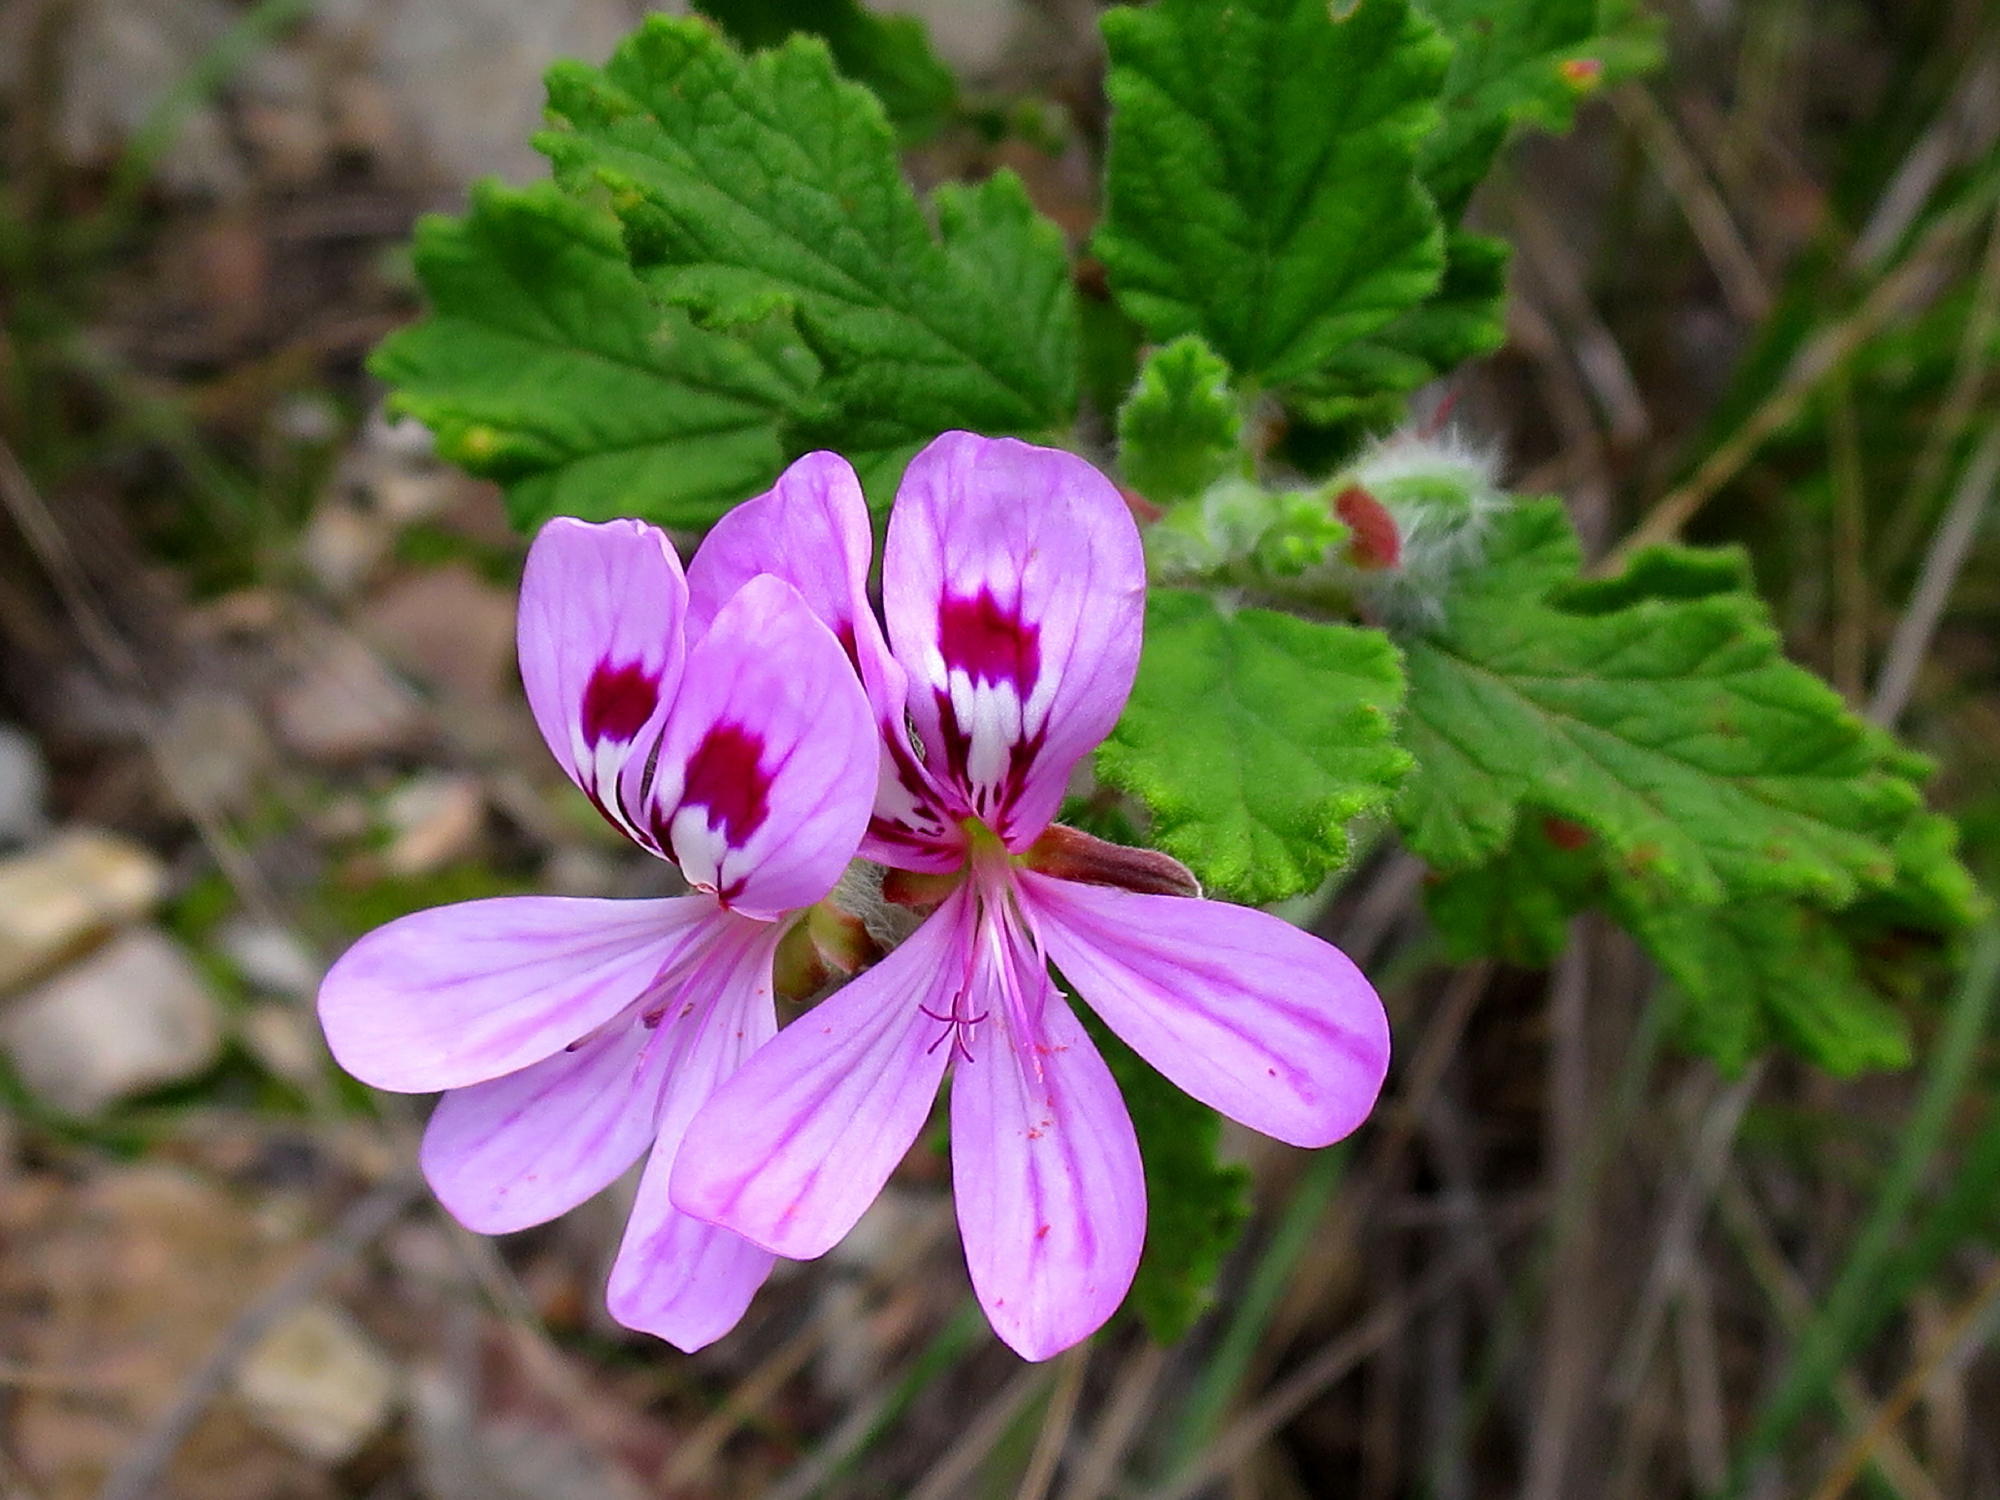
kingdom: Plantae
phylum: Tracheophyta
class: Magnoliopsida
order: Geraniales
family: Geraniaceae
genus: Pelargonium
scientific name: Pelargonium panduriforme
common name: Oakleaf garden geranium
